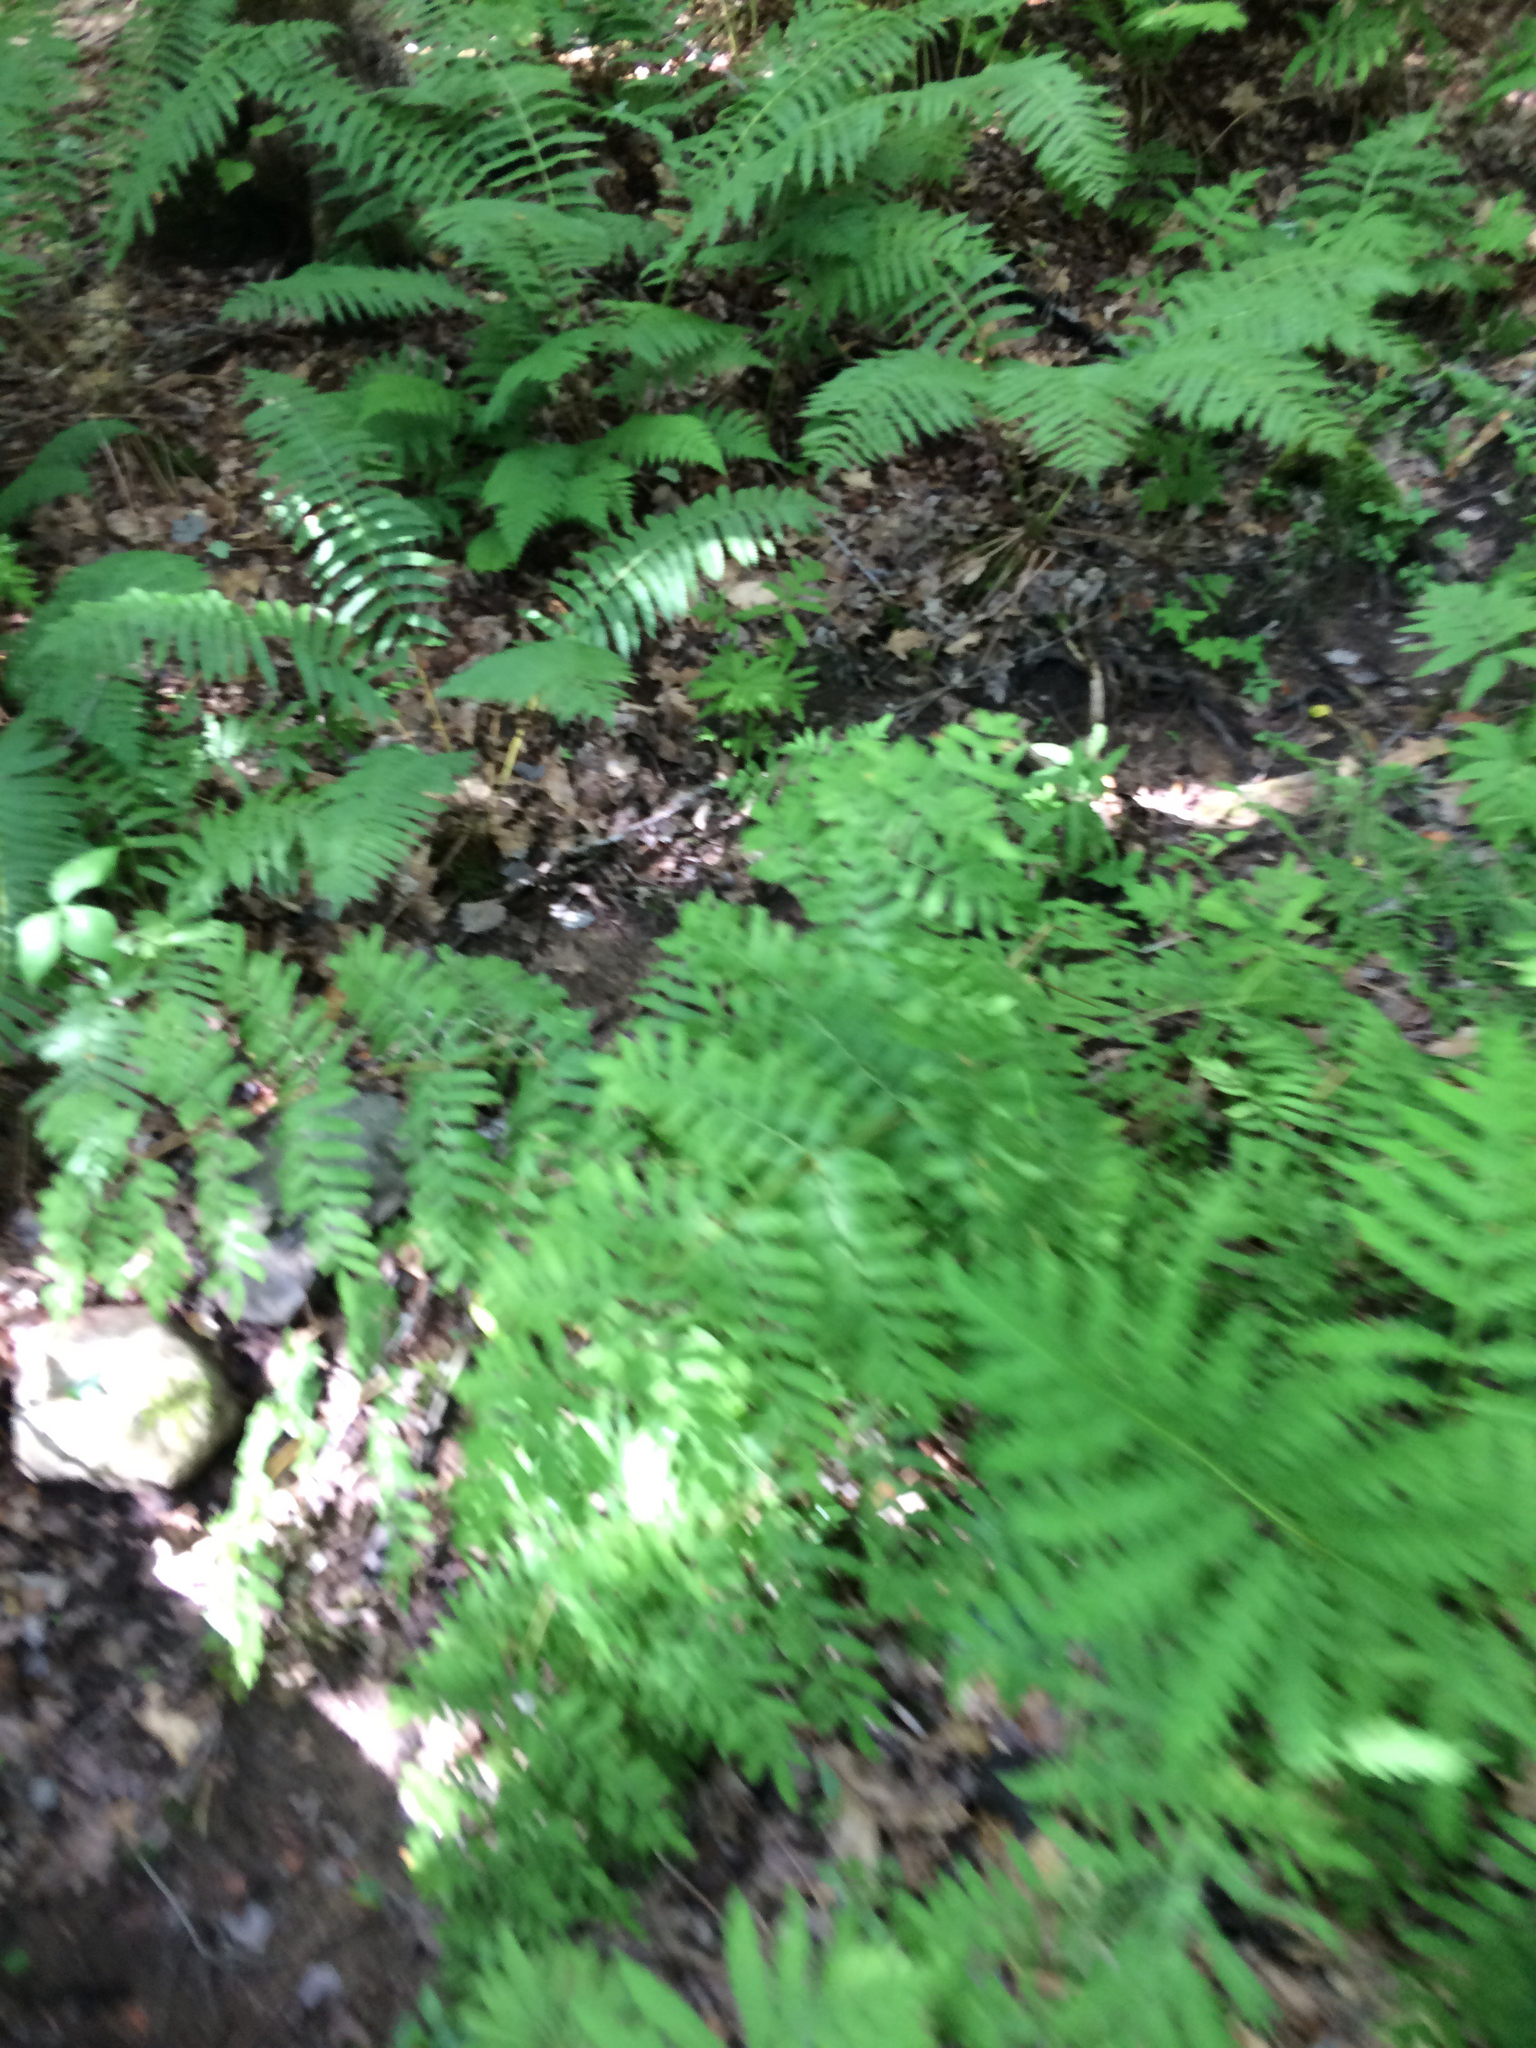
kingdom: Plantae
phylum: Tracheophyta
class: Polypodiopsida
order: Osmundales
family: Osmundaceae
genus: Osmunda
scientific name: Osmunda spectabilis
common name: American royal fern
